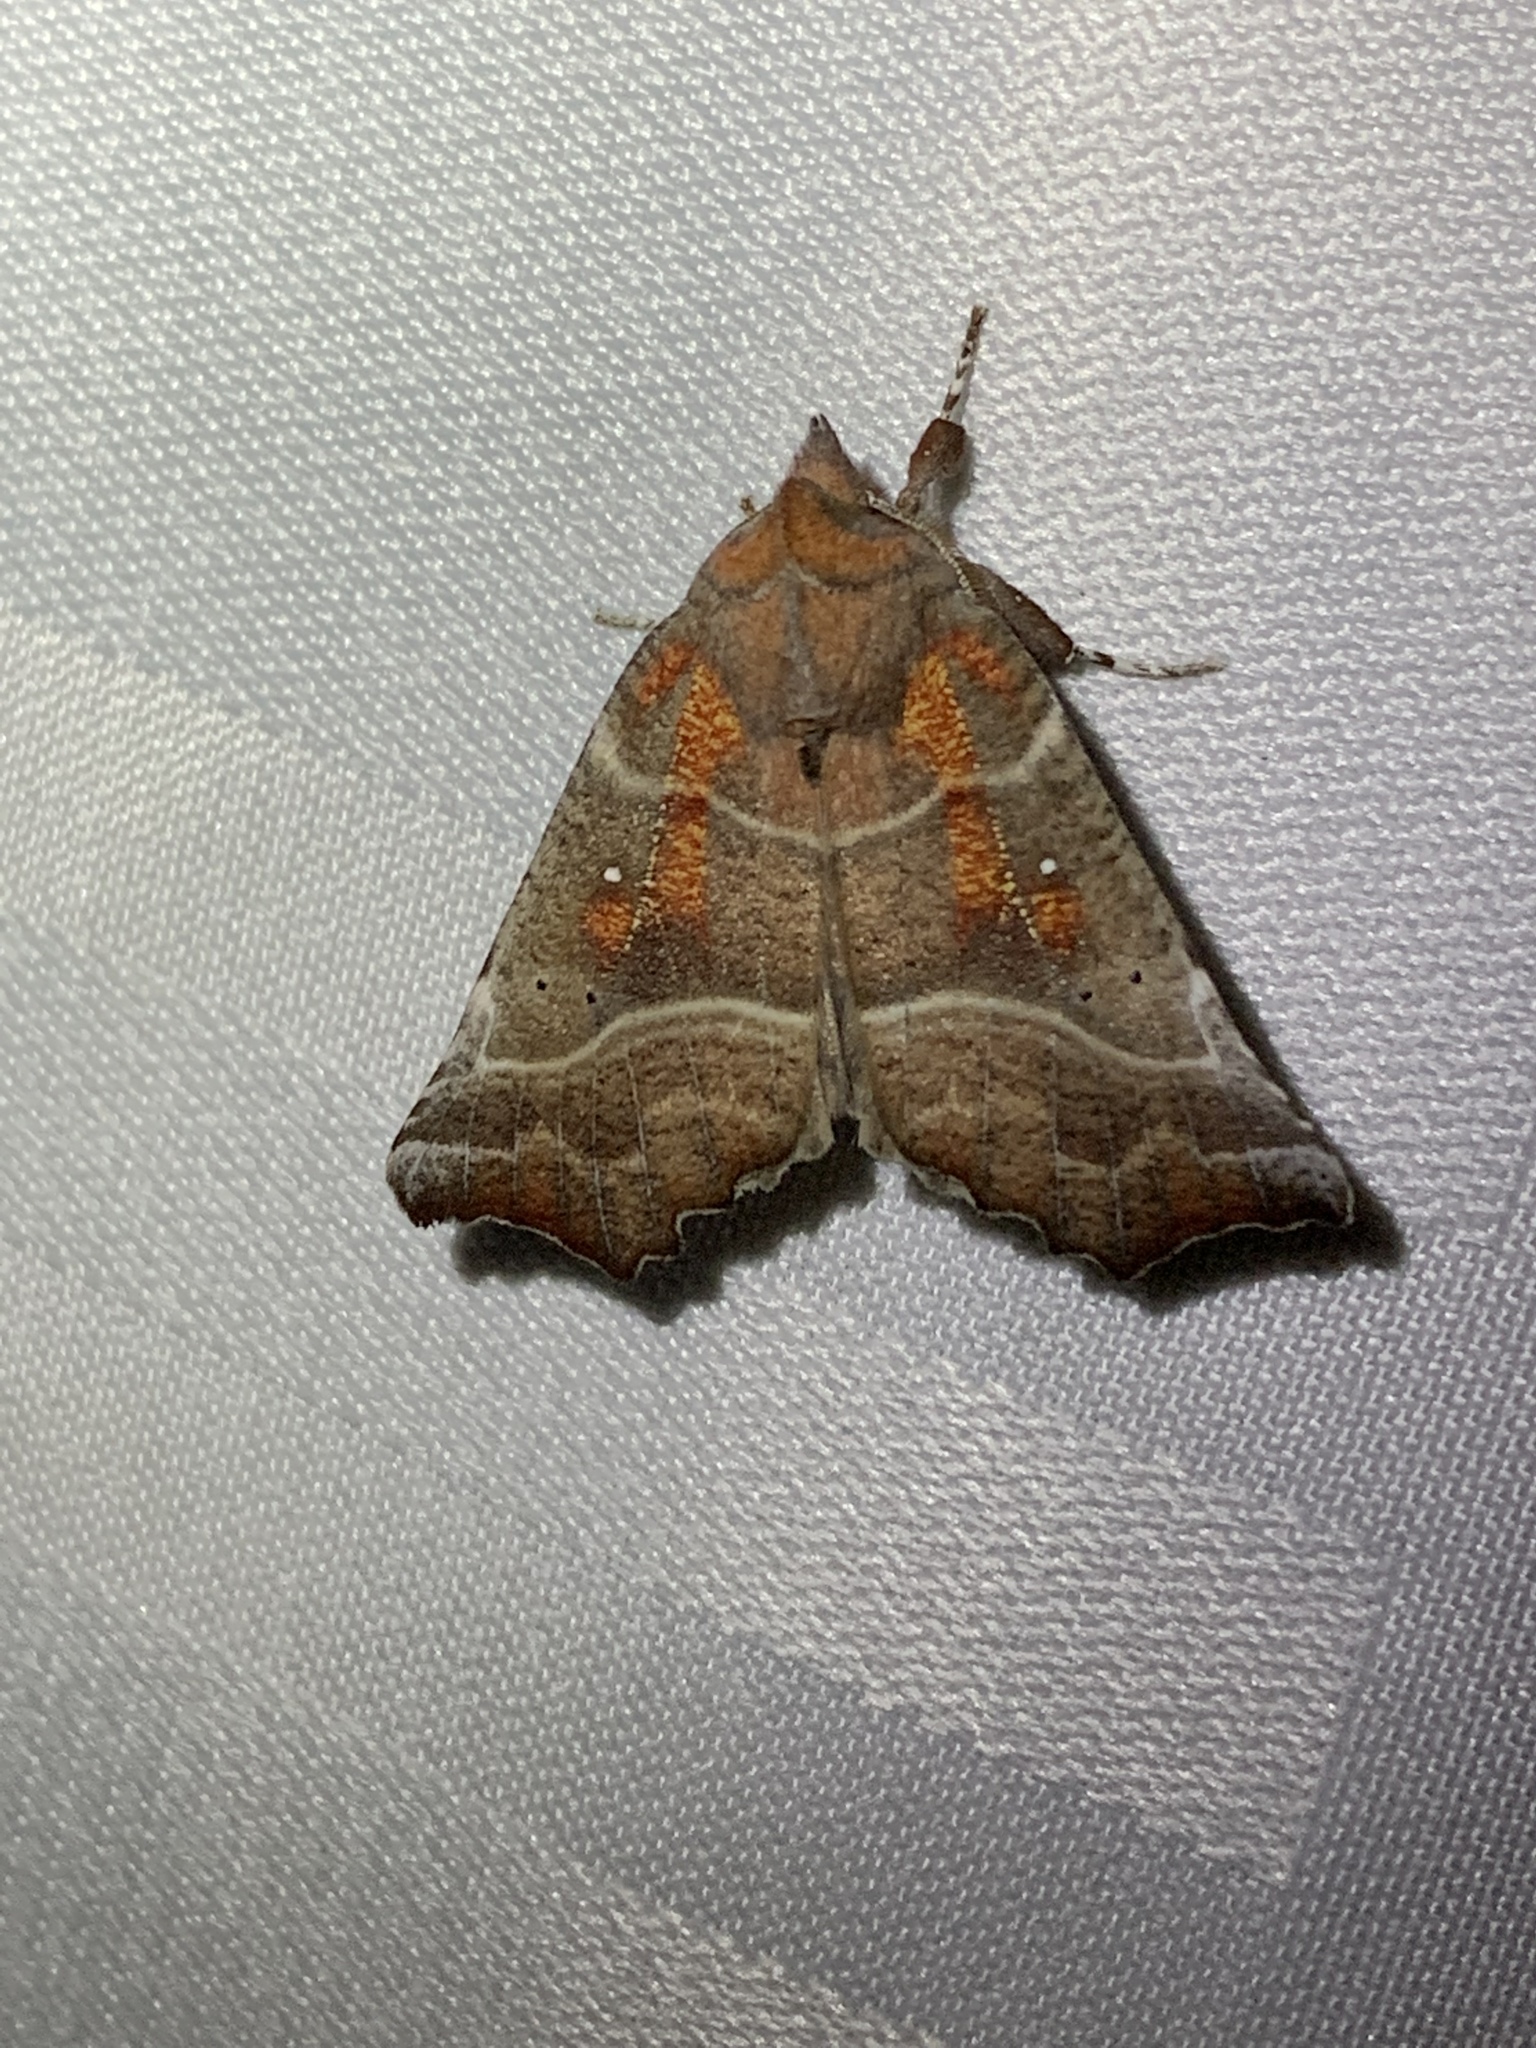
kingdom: Animalia
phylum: Arthropoda
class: Insecta
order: Lepidoptera
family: Erebidae
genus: Scoliopteryx
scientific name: Scoliopteryx libatrix
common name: Herald
